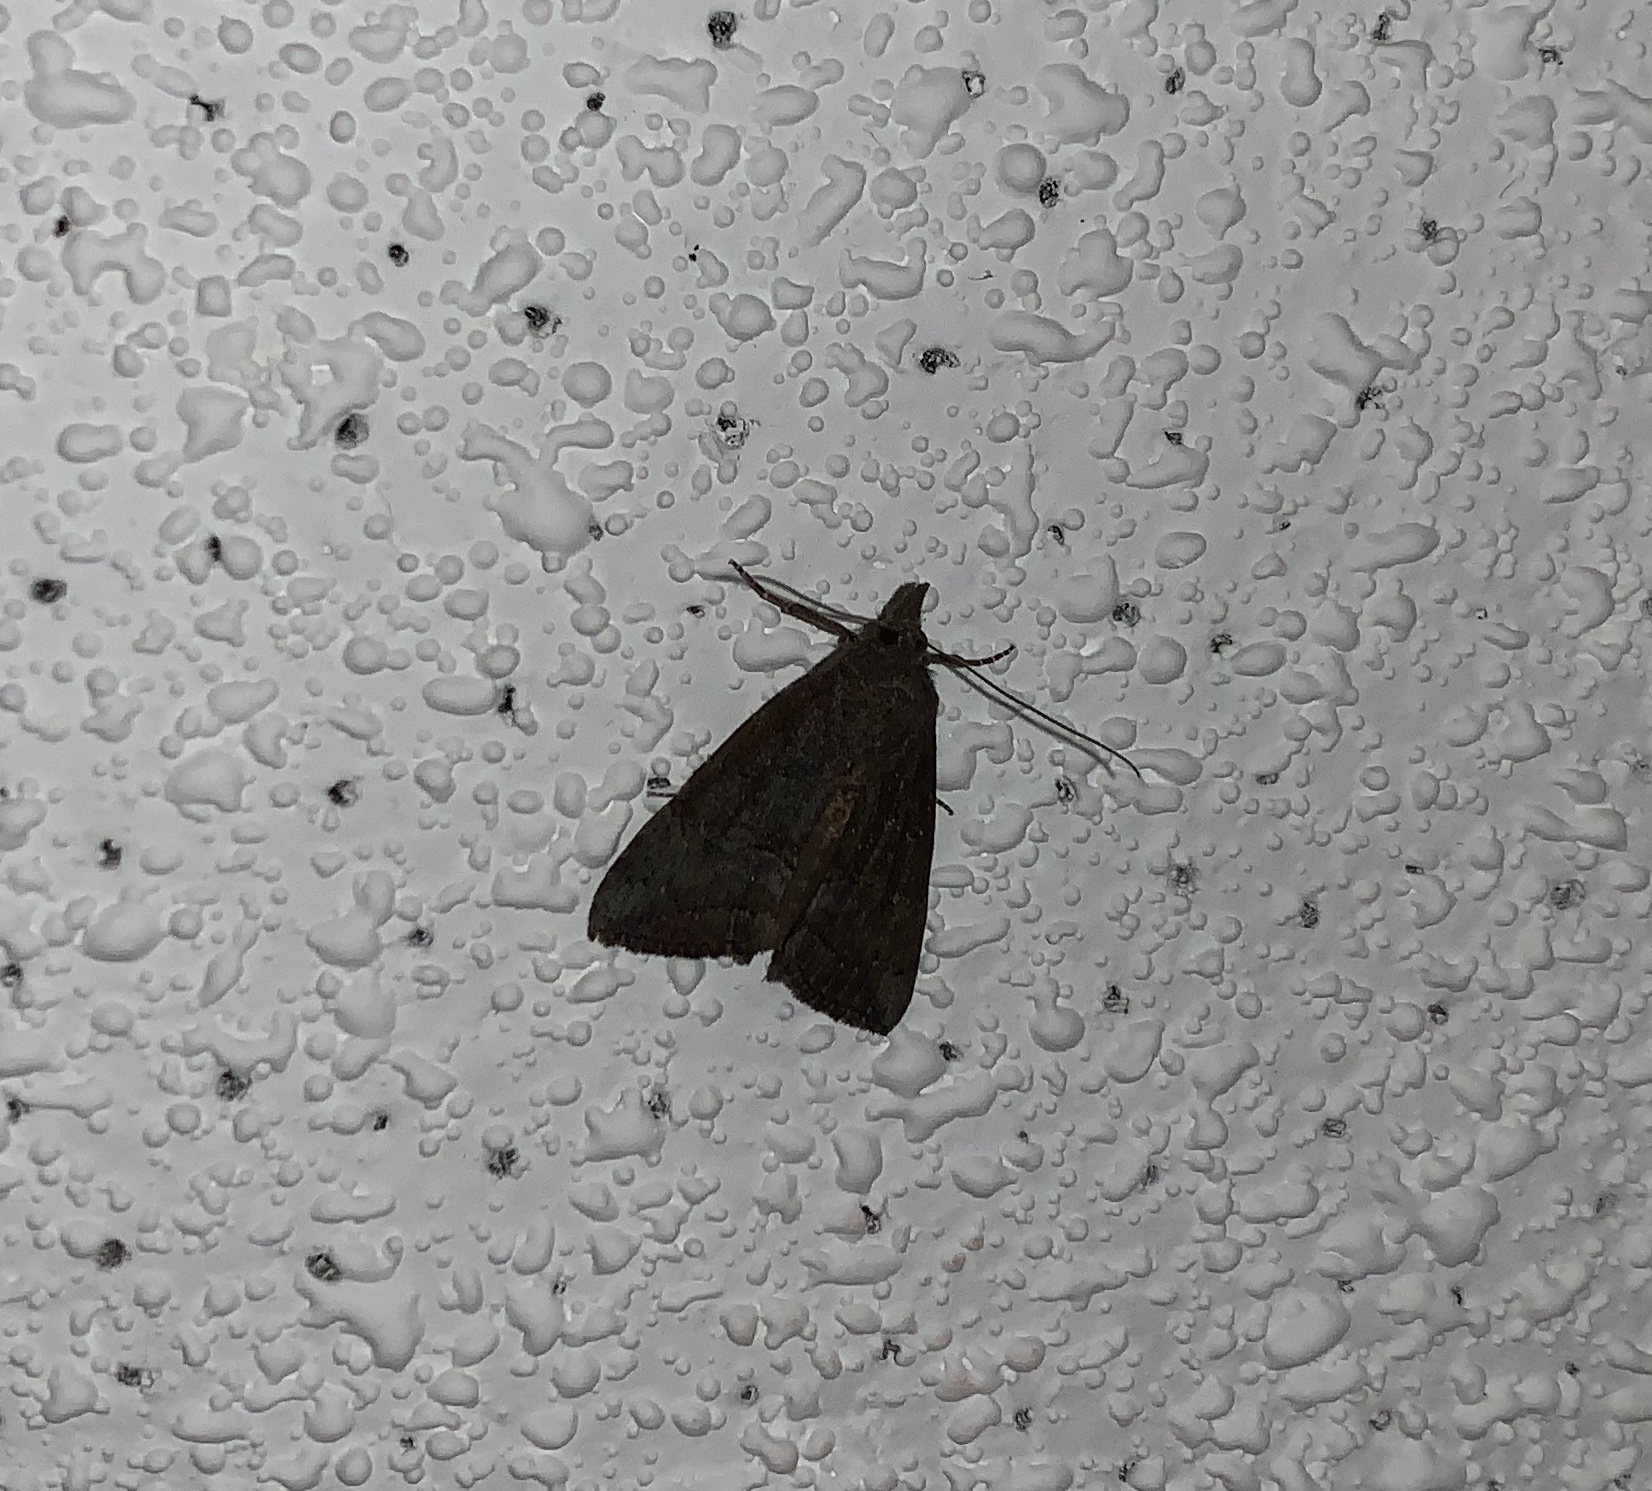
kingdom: Animalia
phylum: Arthropoda
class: Insecta
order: Lepidoptera
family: Erebidae
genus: Hypena
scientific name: Hypena scabra
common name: Green cloverworm
